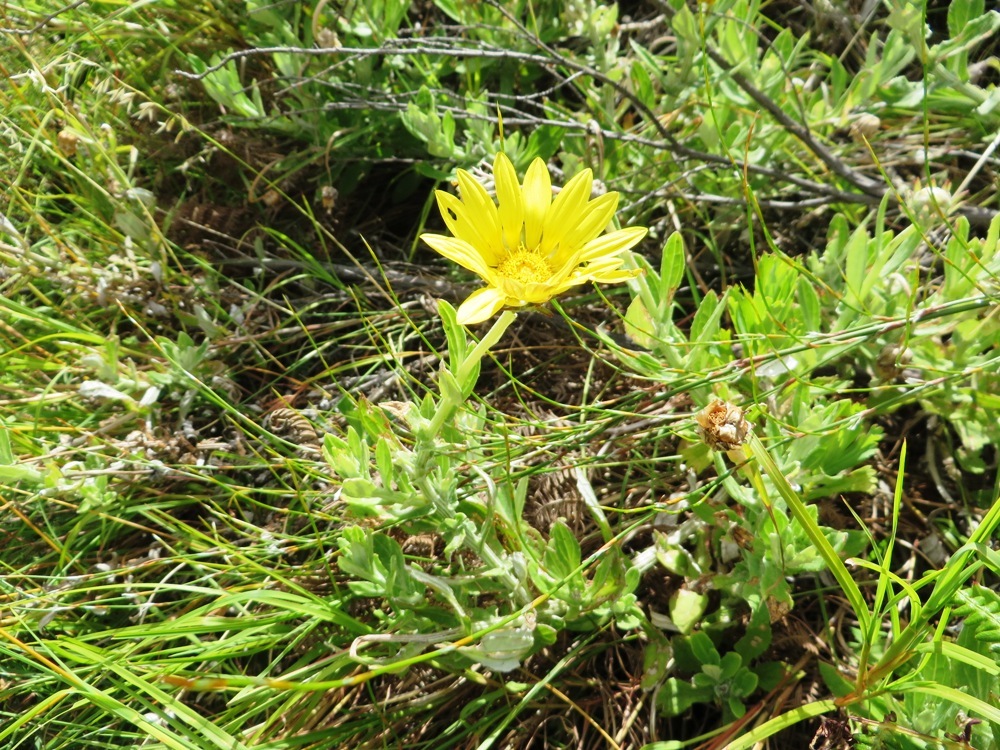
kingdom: Plantae
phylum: Tracheophyta
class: Magnoliopsida
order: Asterales
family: Asteraceae
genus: Arctotis
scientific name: Arctotis scabra
